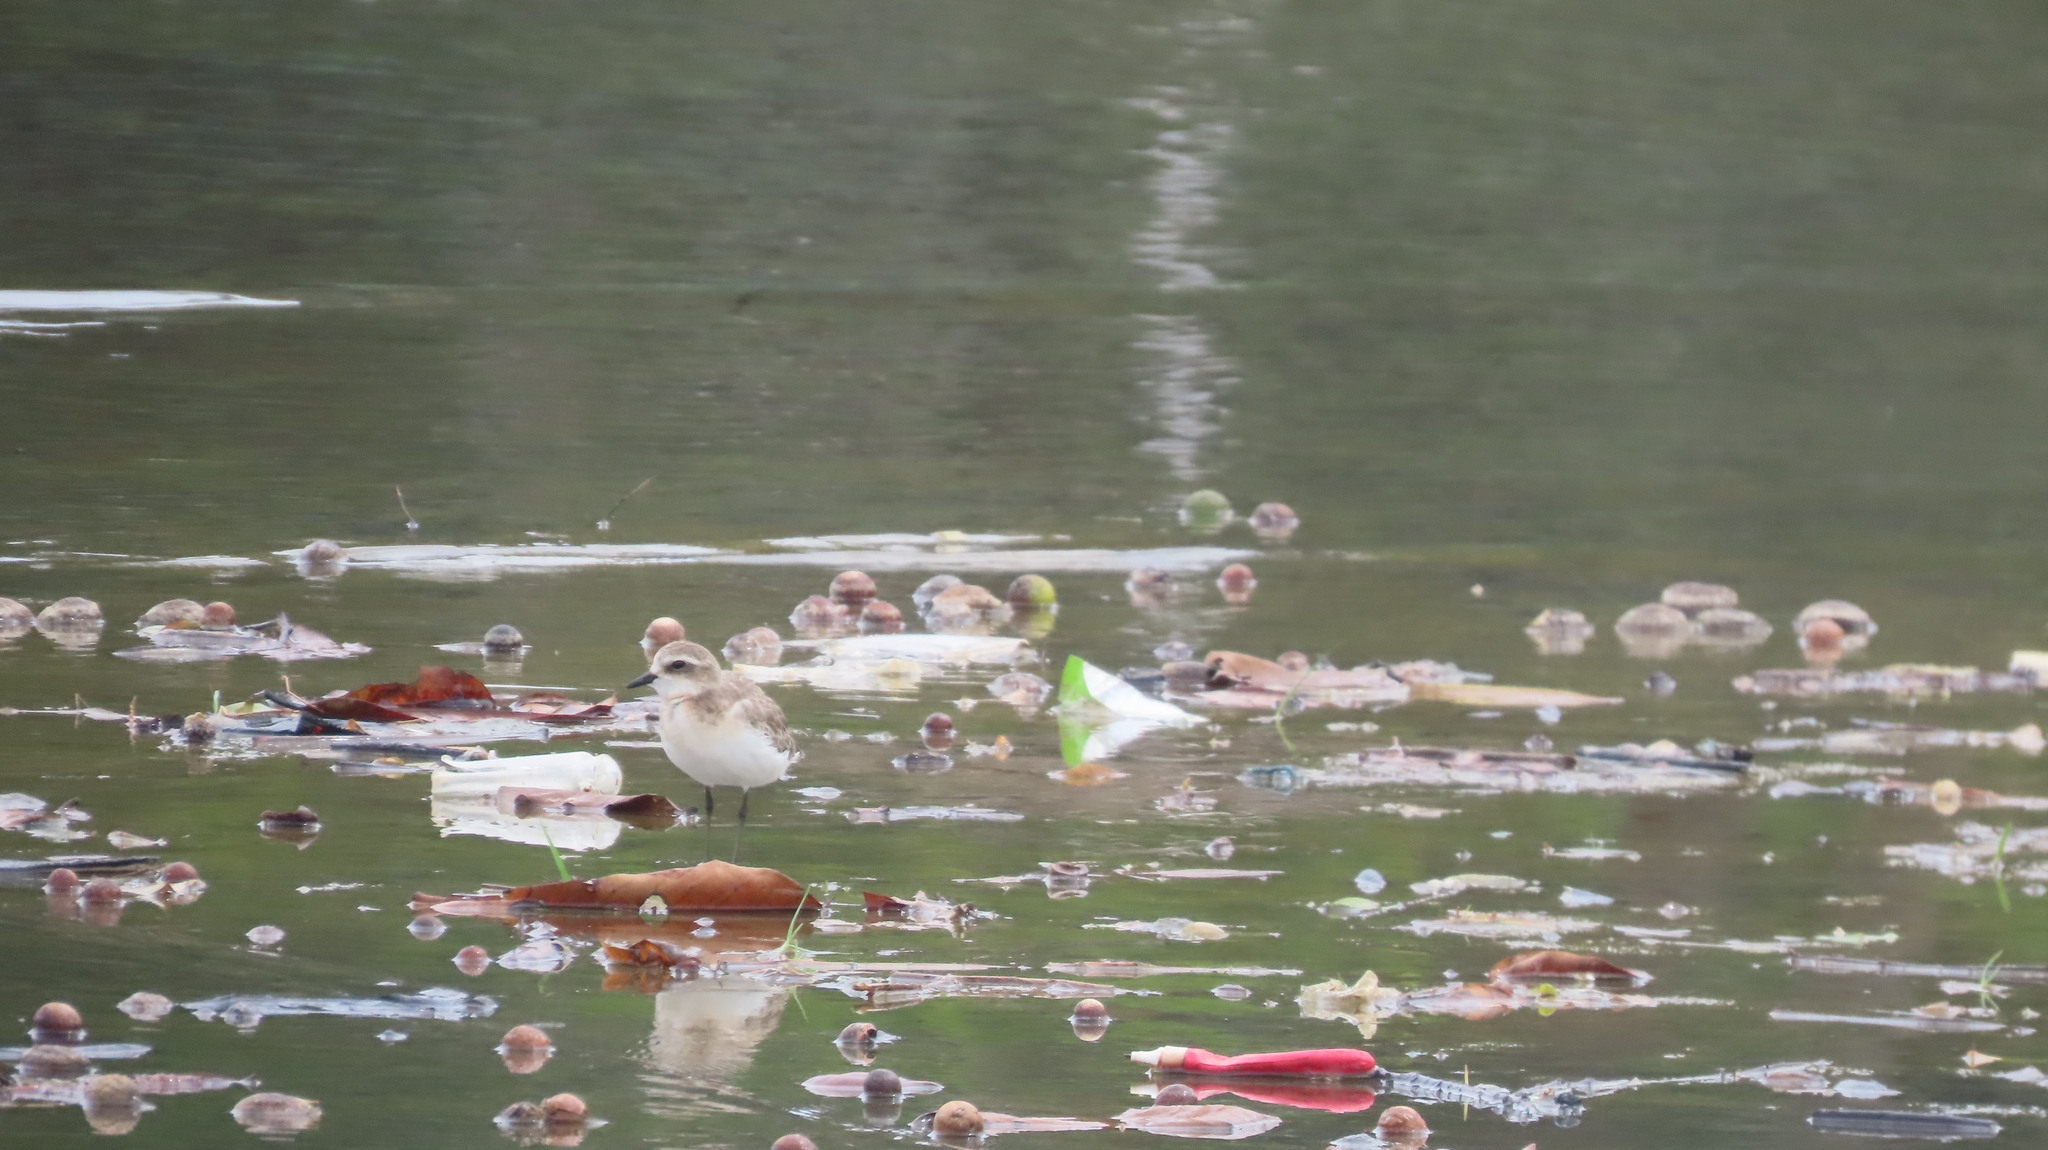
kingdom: Animalia
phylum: Chordata
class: Aves
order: Charadriiformes
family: Charadriidae
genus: Anarhynchus
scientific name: Anarhynchus
